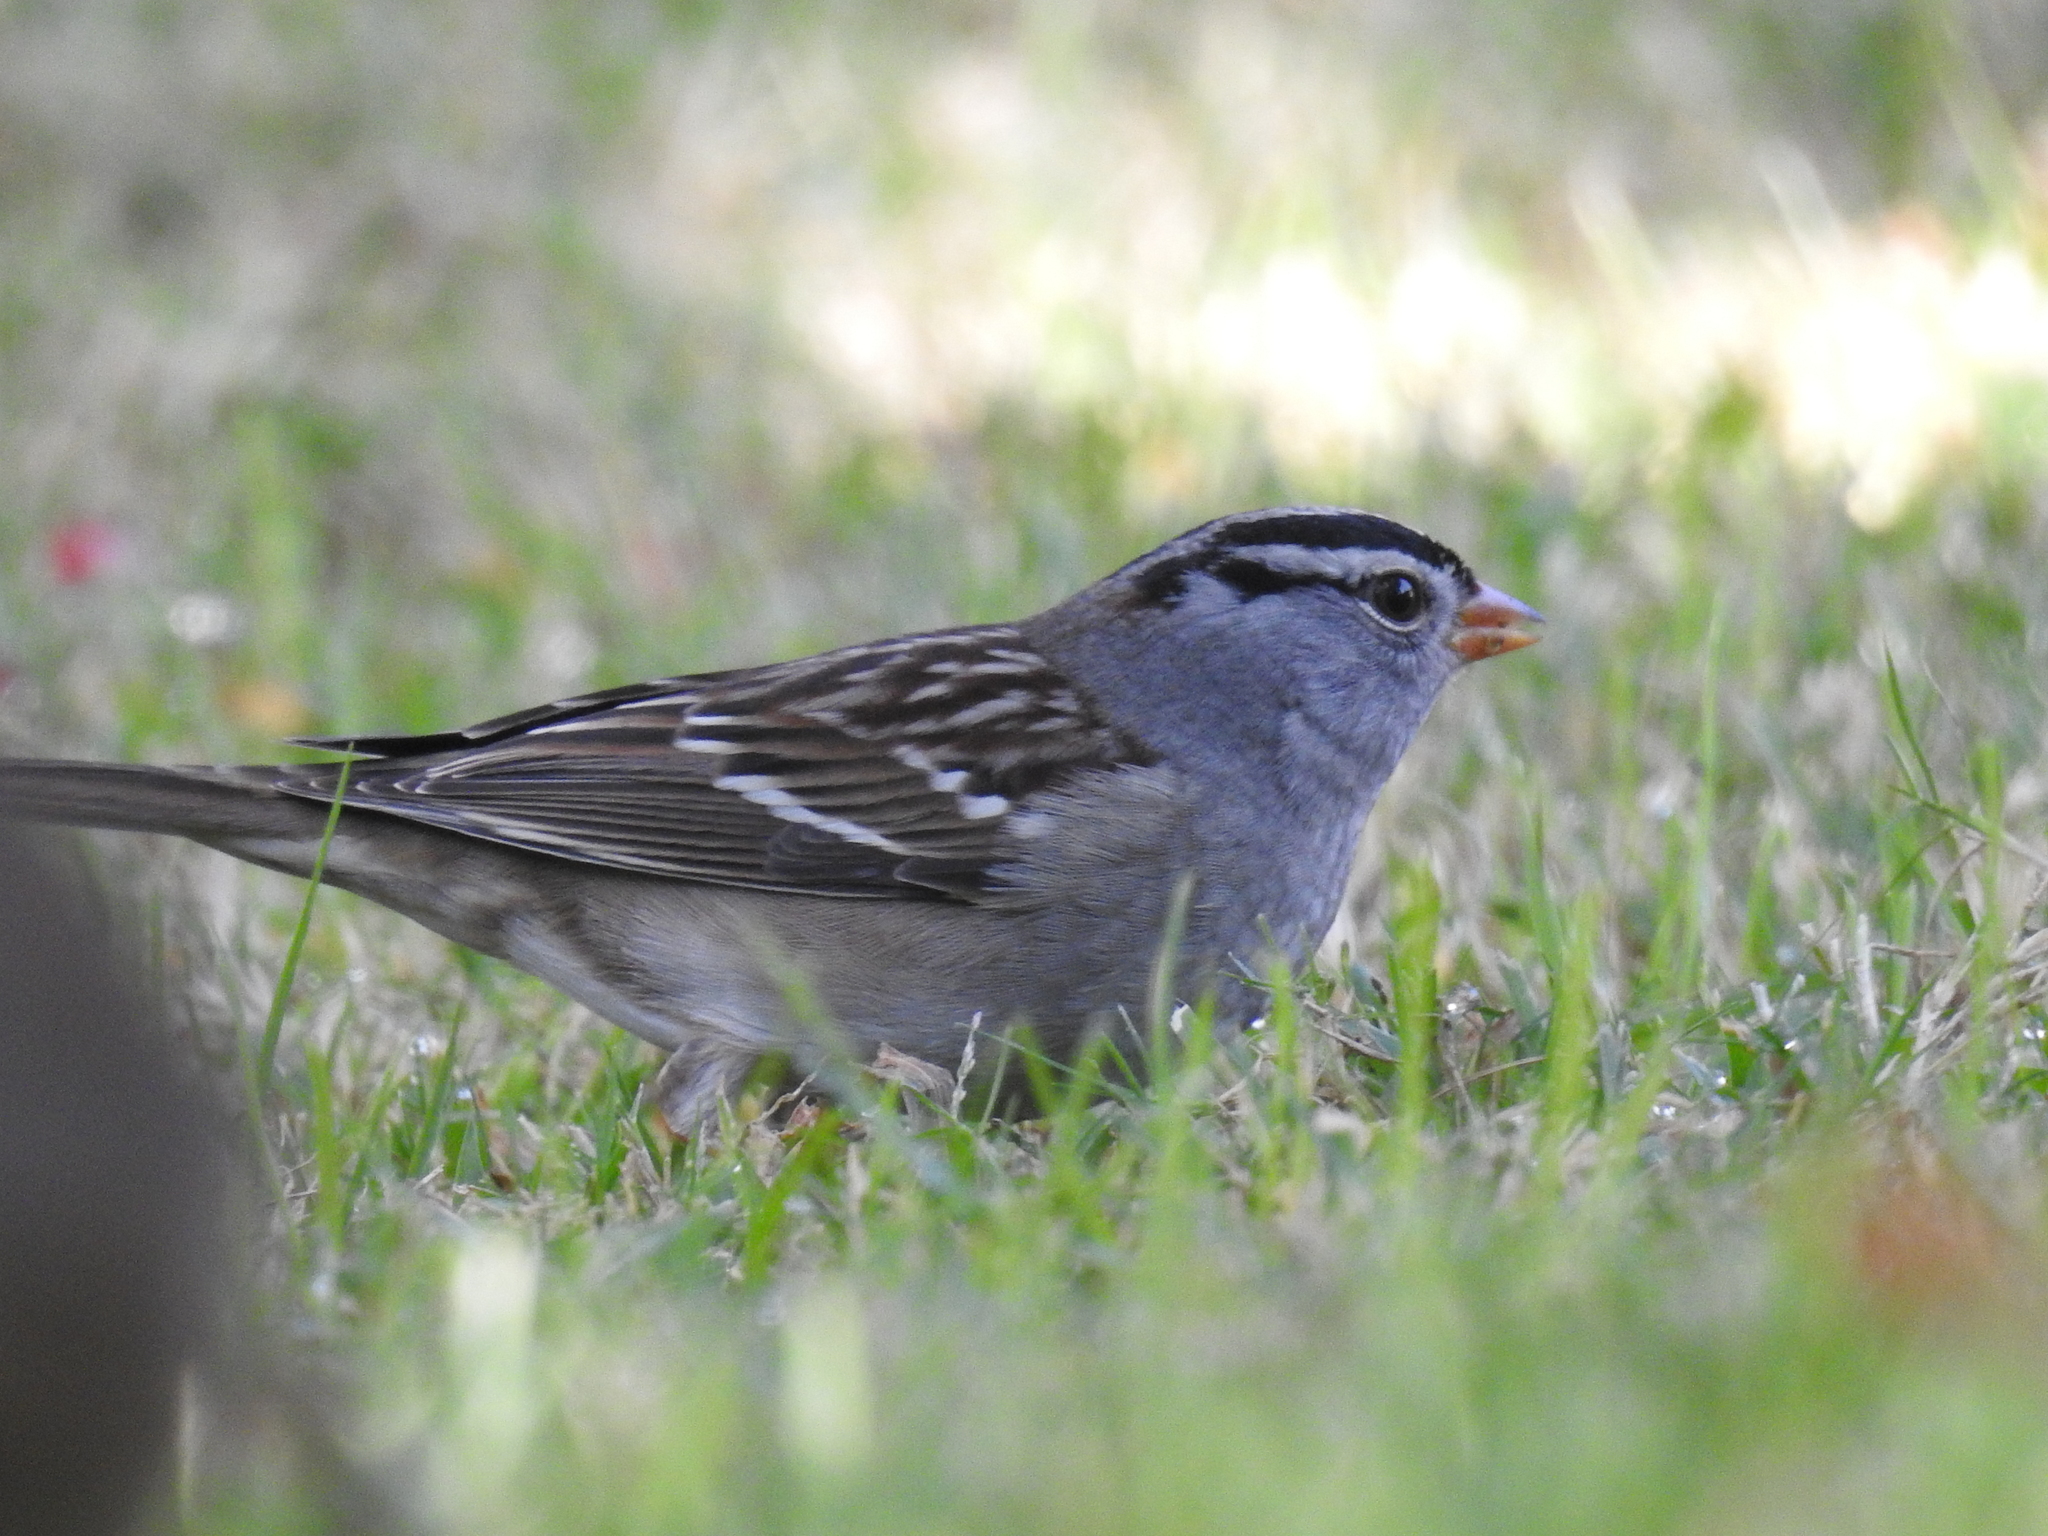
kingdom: Animalia
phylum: Chordata
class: Aves
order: Passeriformes
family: Passerellidae
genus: Zonotrichia
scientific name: Zonotrichia leucophrys
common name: White-crowned sparrow
